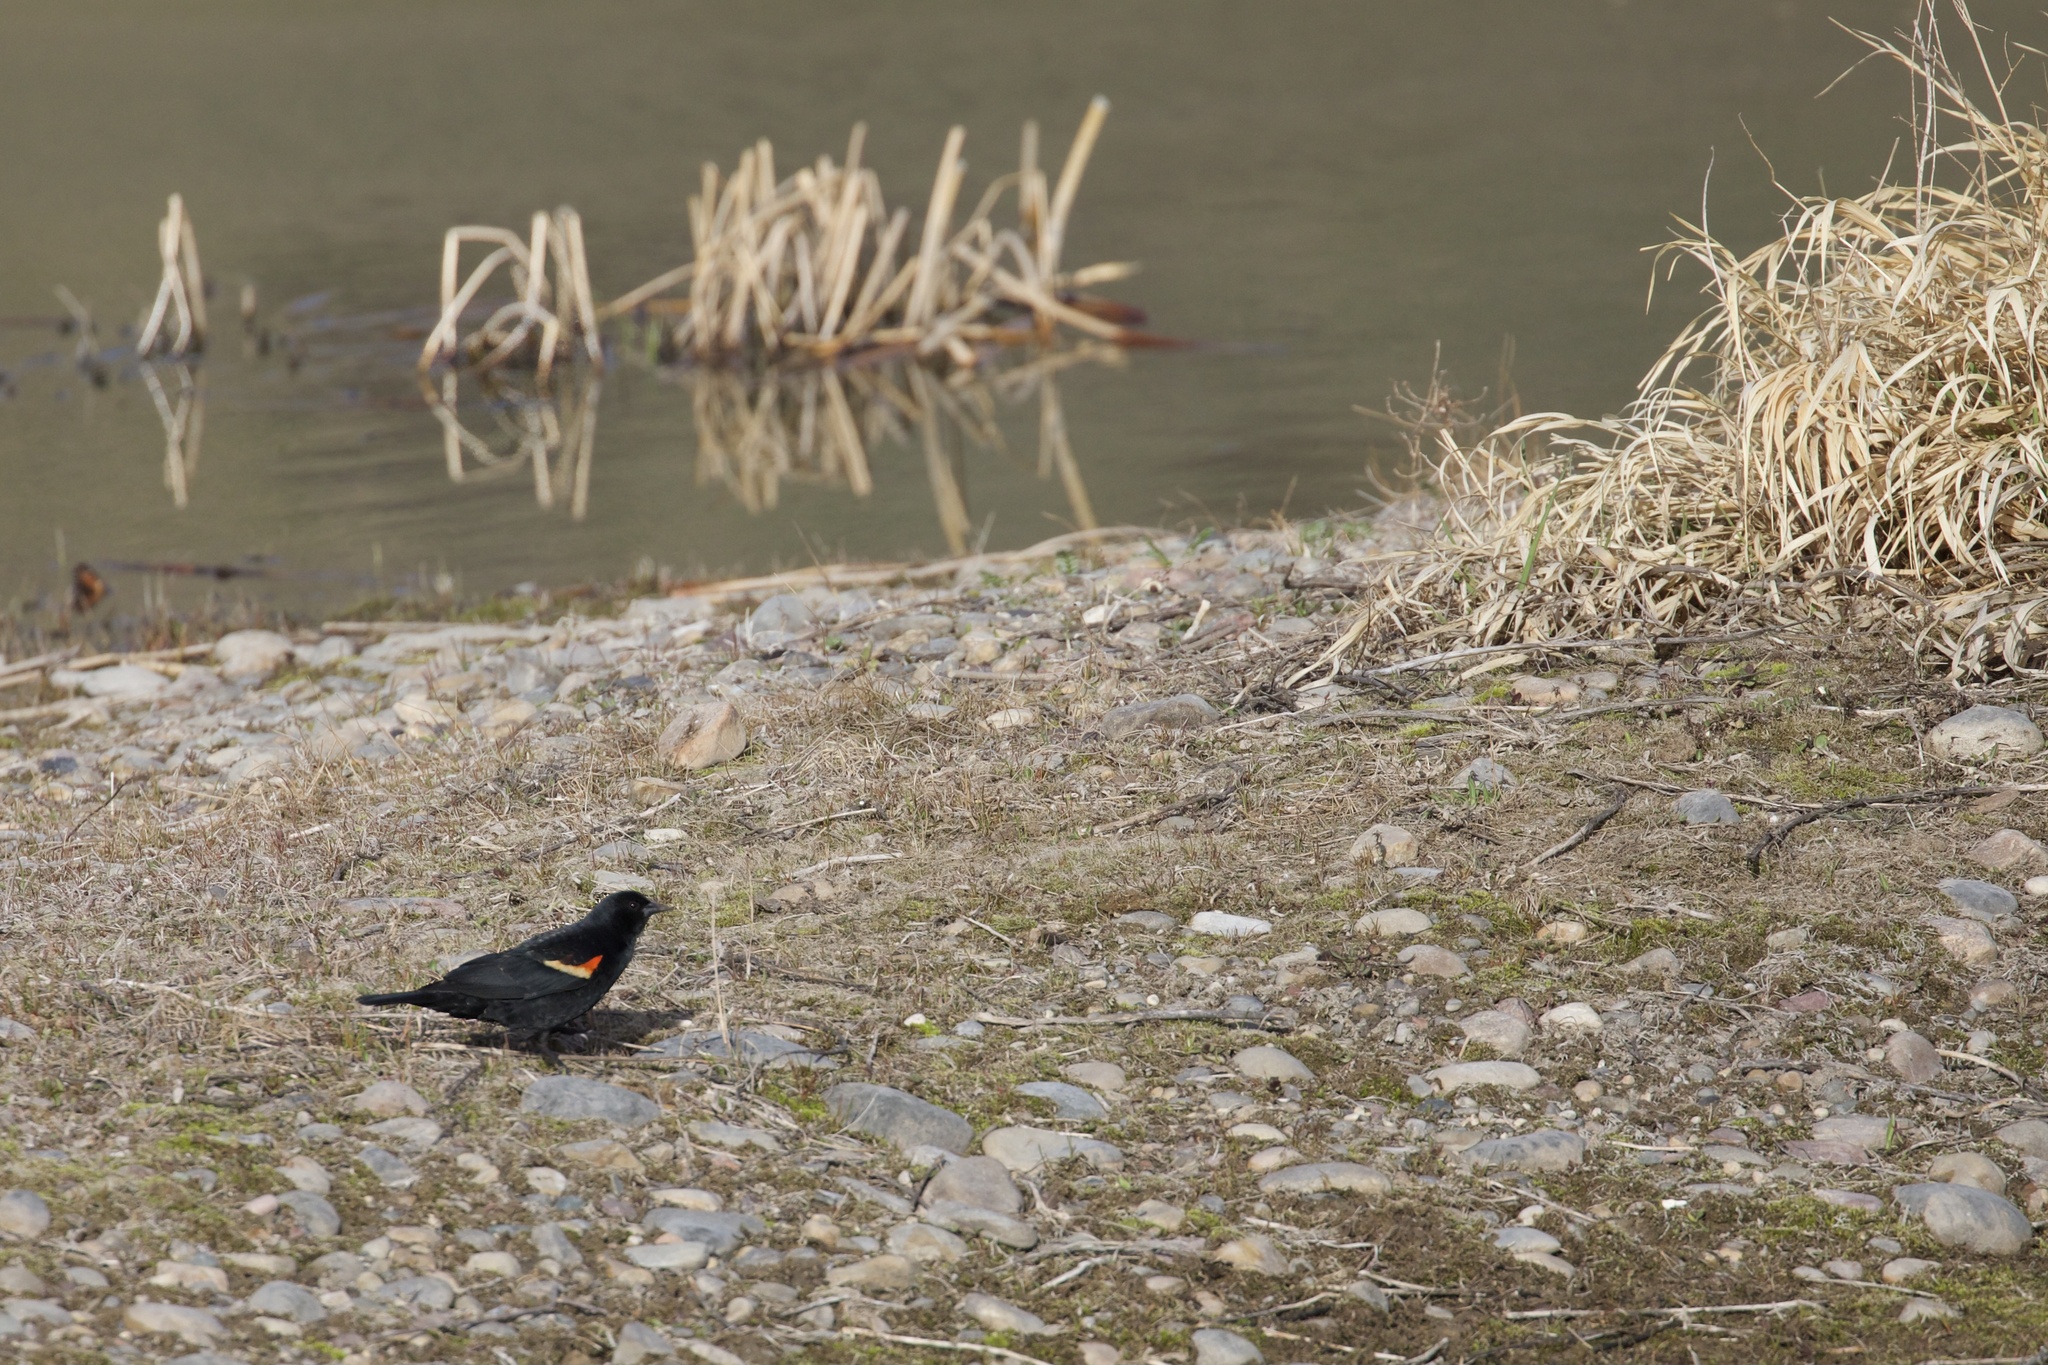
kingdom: Animalia
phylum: Chordata
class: Aves
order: Passeriformes
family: Icteridae
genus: Agelaius
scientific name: Agelaius phoeniceus
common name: Red-winged blackbird
